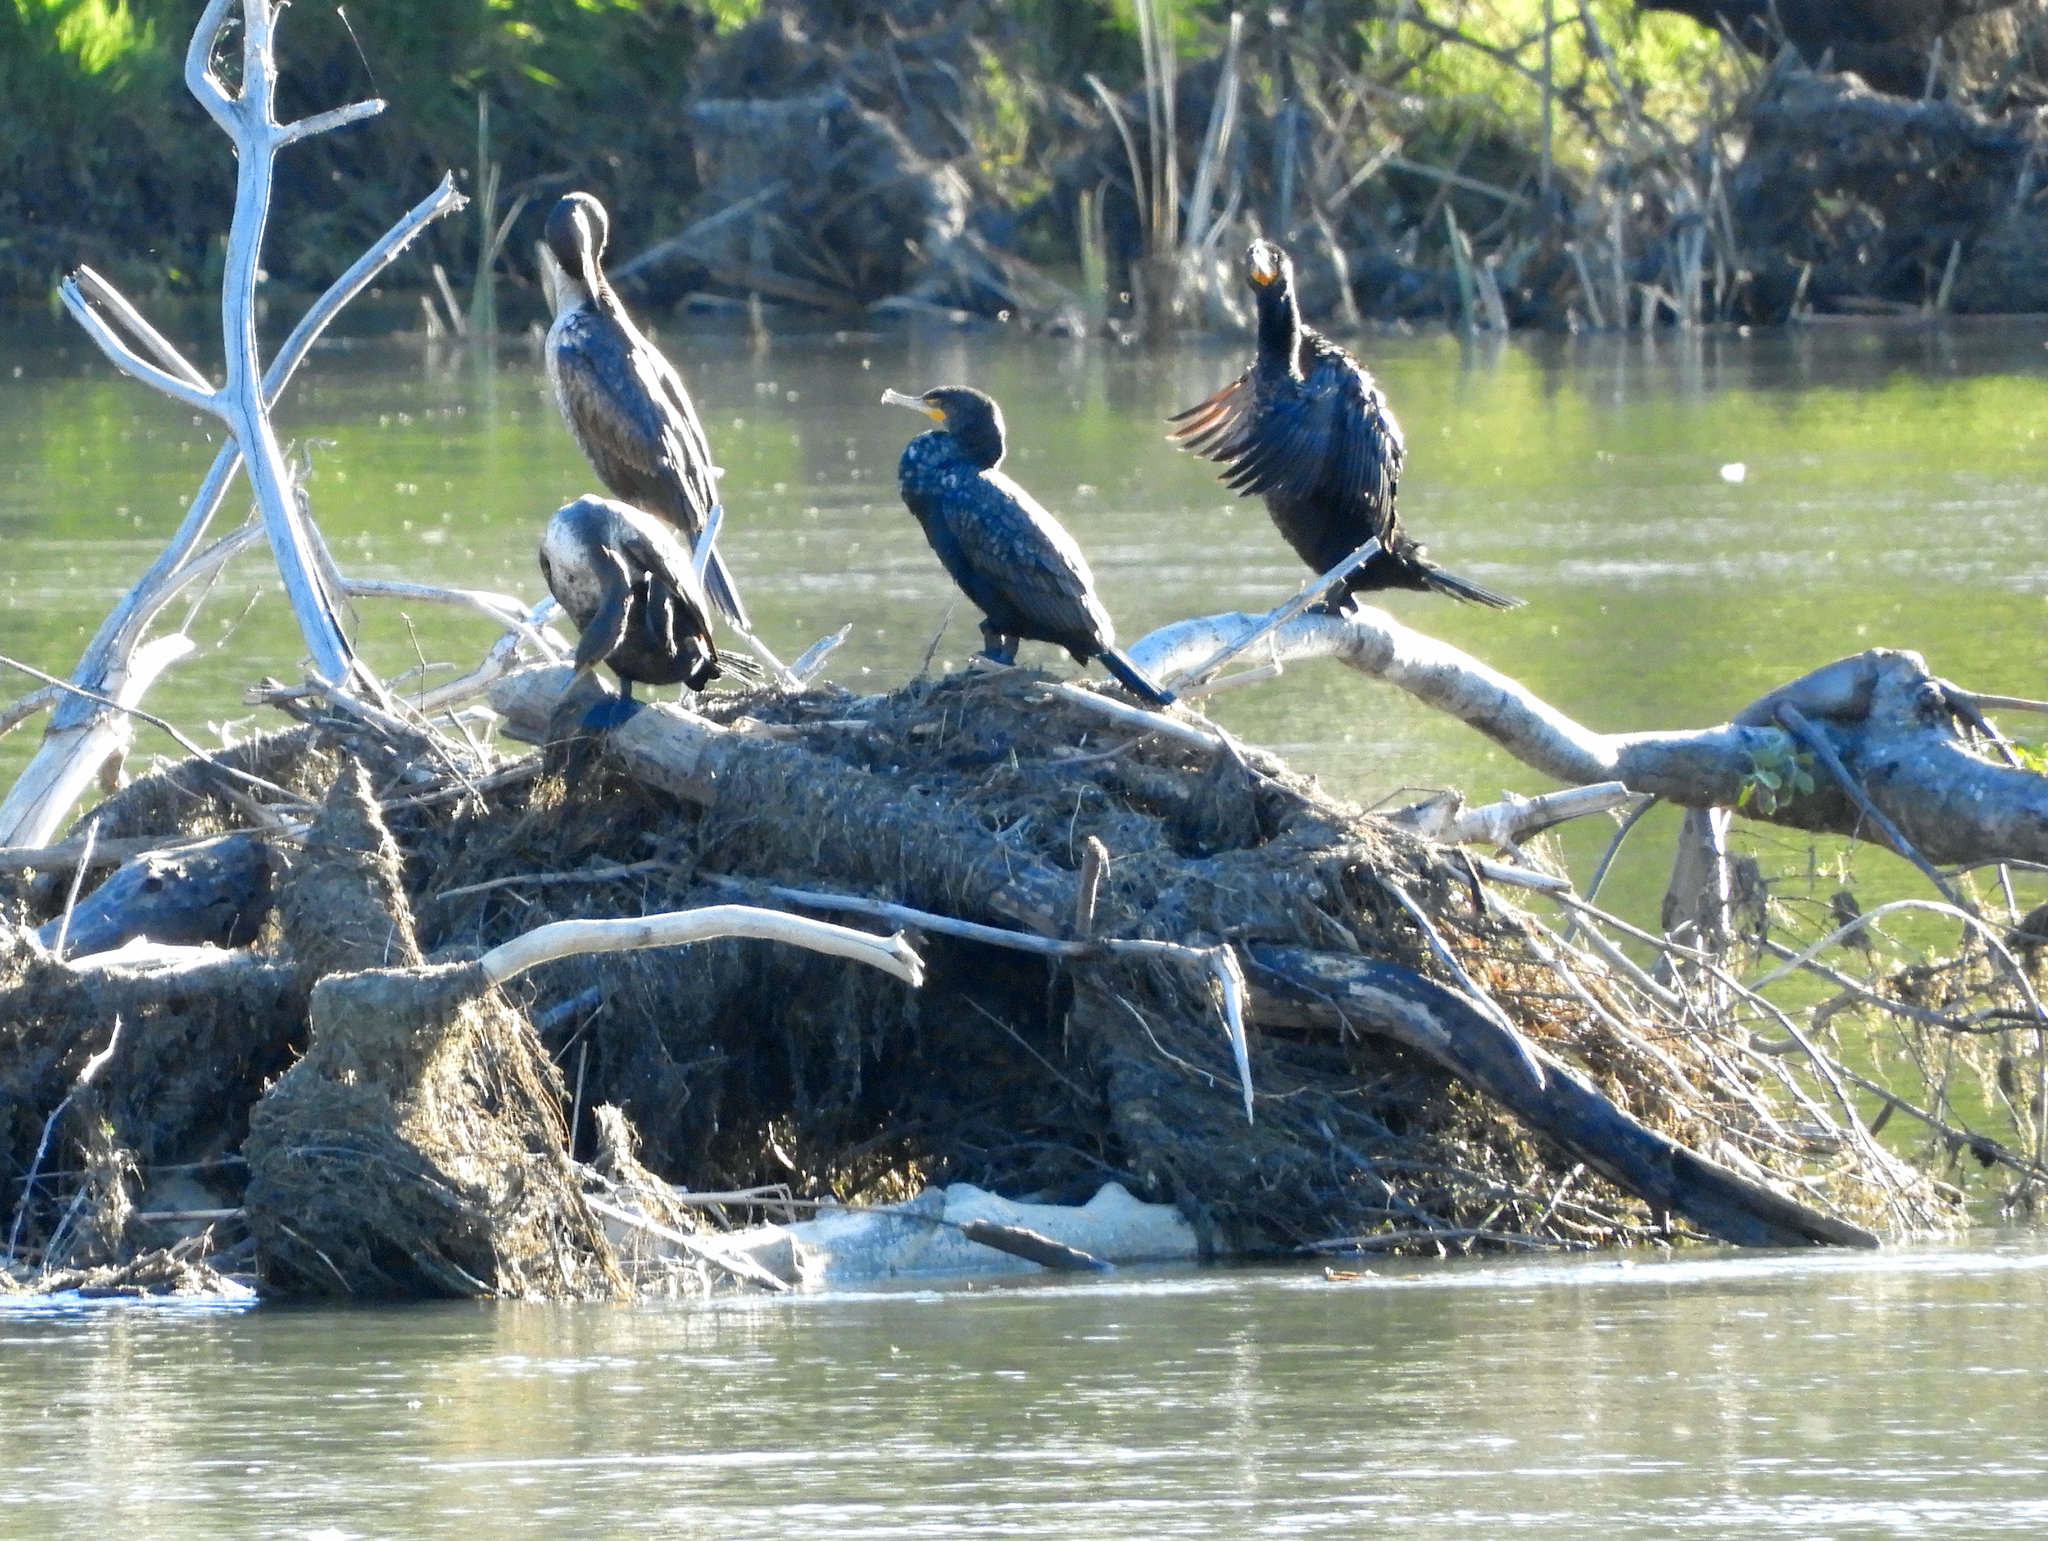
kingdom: Animalia
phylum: Chordata
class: Aves
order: Suliformes
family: Phalacrocoracidae
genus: Phalacrocorax
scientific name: Phalacrocorax auritus
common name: Double-crested cormorant
